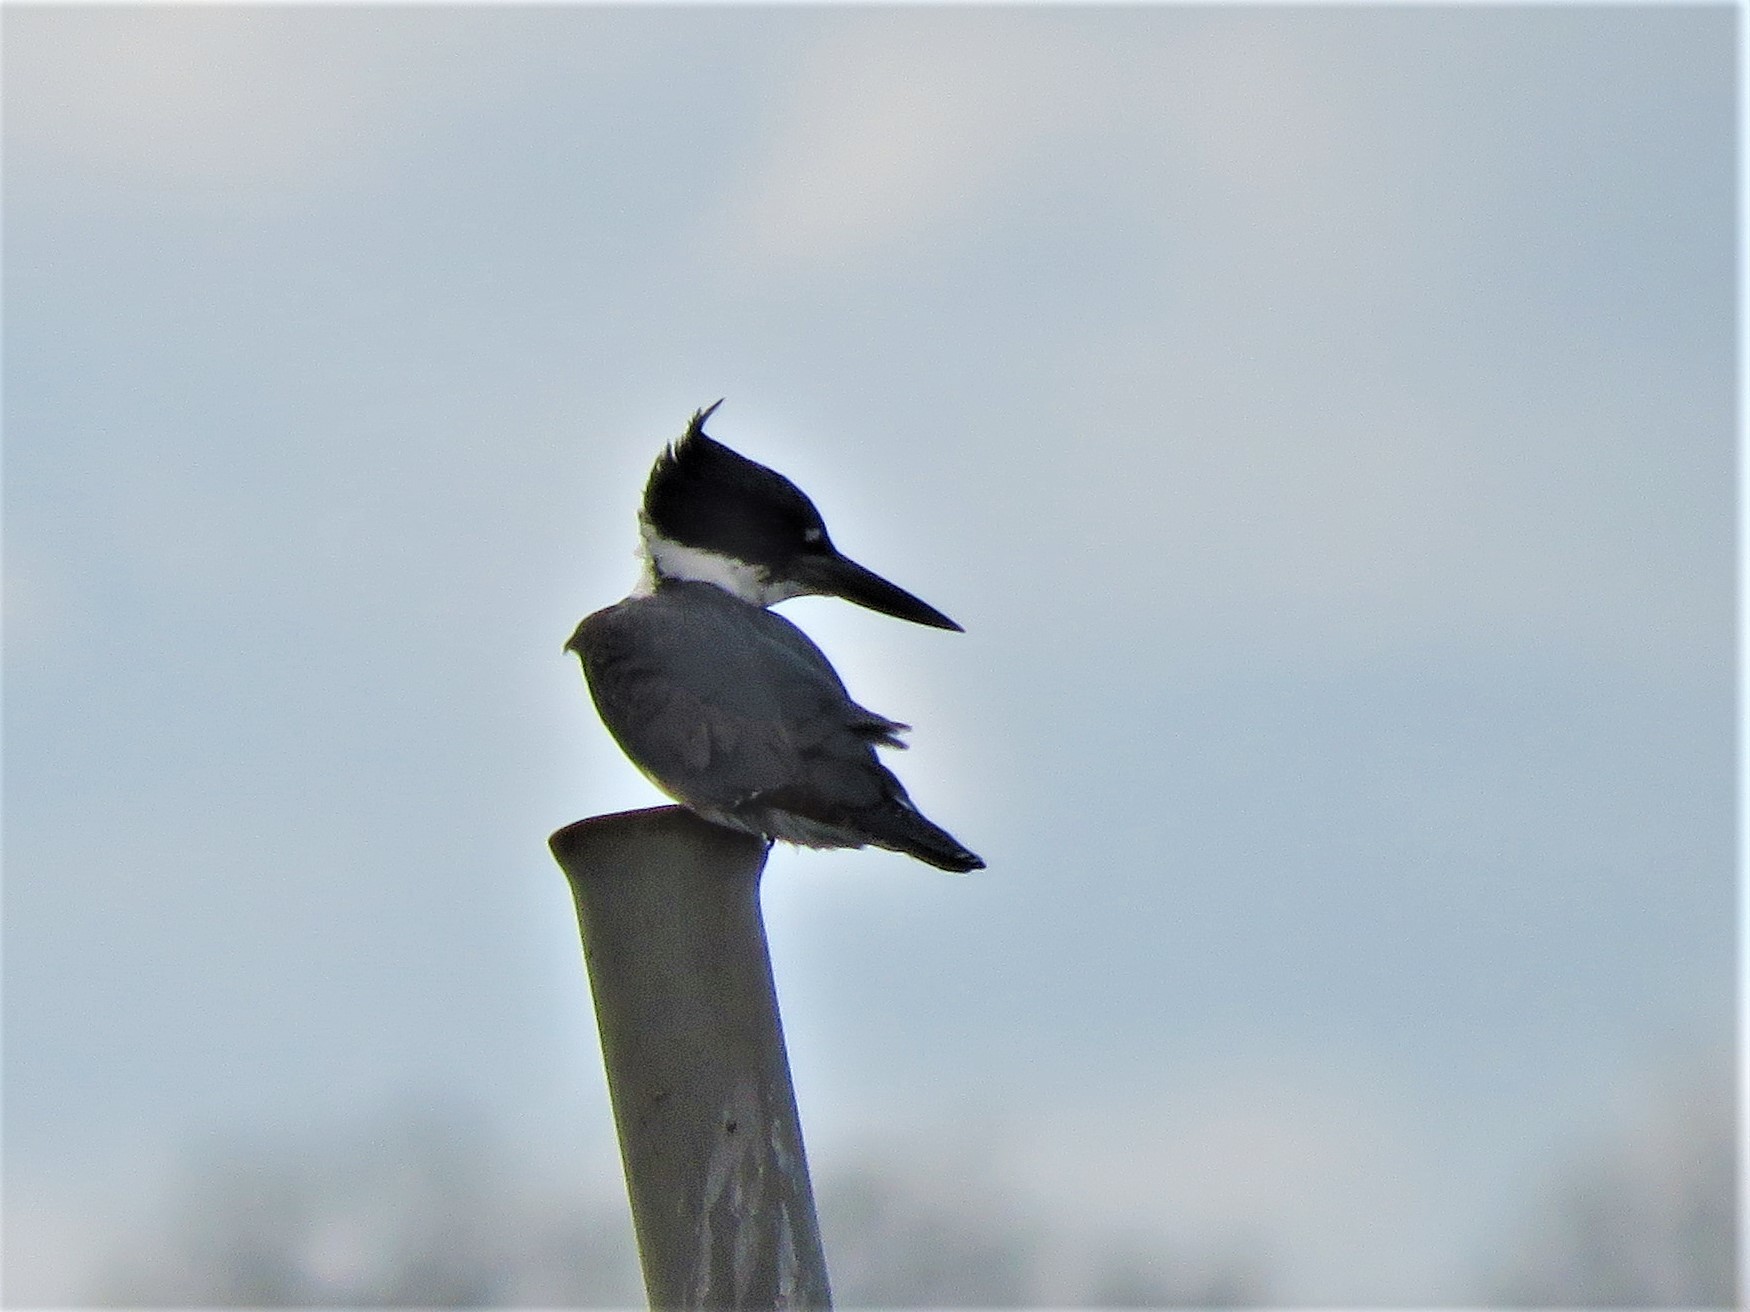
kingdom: Animalia
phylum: Chordata
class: Aves
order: Coraciiformes
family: Alcedinidae
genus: Megaceryle
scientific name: Megaceryle alcyon
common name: Belted kingfisher
